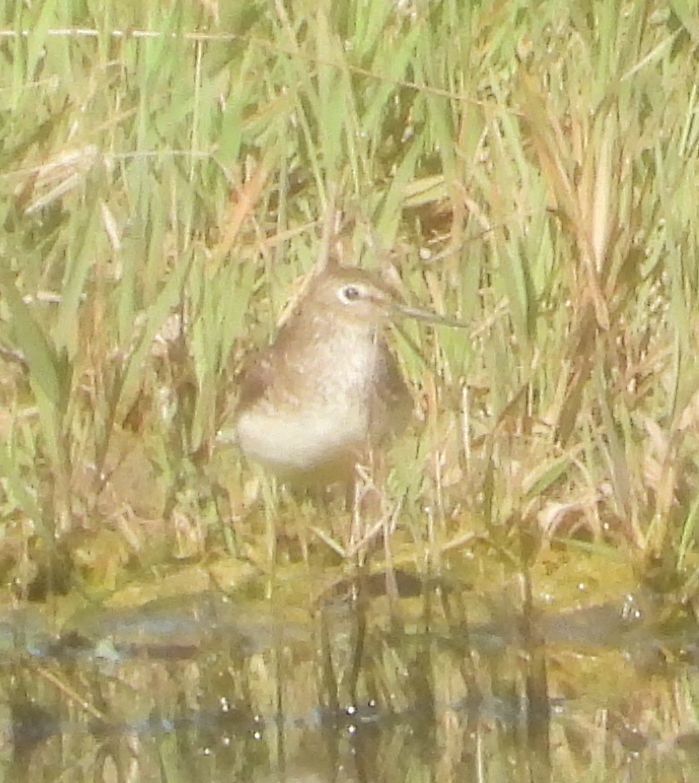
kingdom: Animalia
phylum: Chordata
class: Aves
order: Charadriiformes
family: Scolopacidae
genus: Tringa
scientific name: Tringa solitaria
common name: Solitary sandpiper
